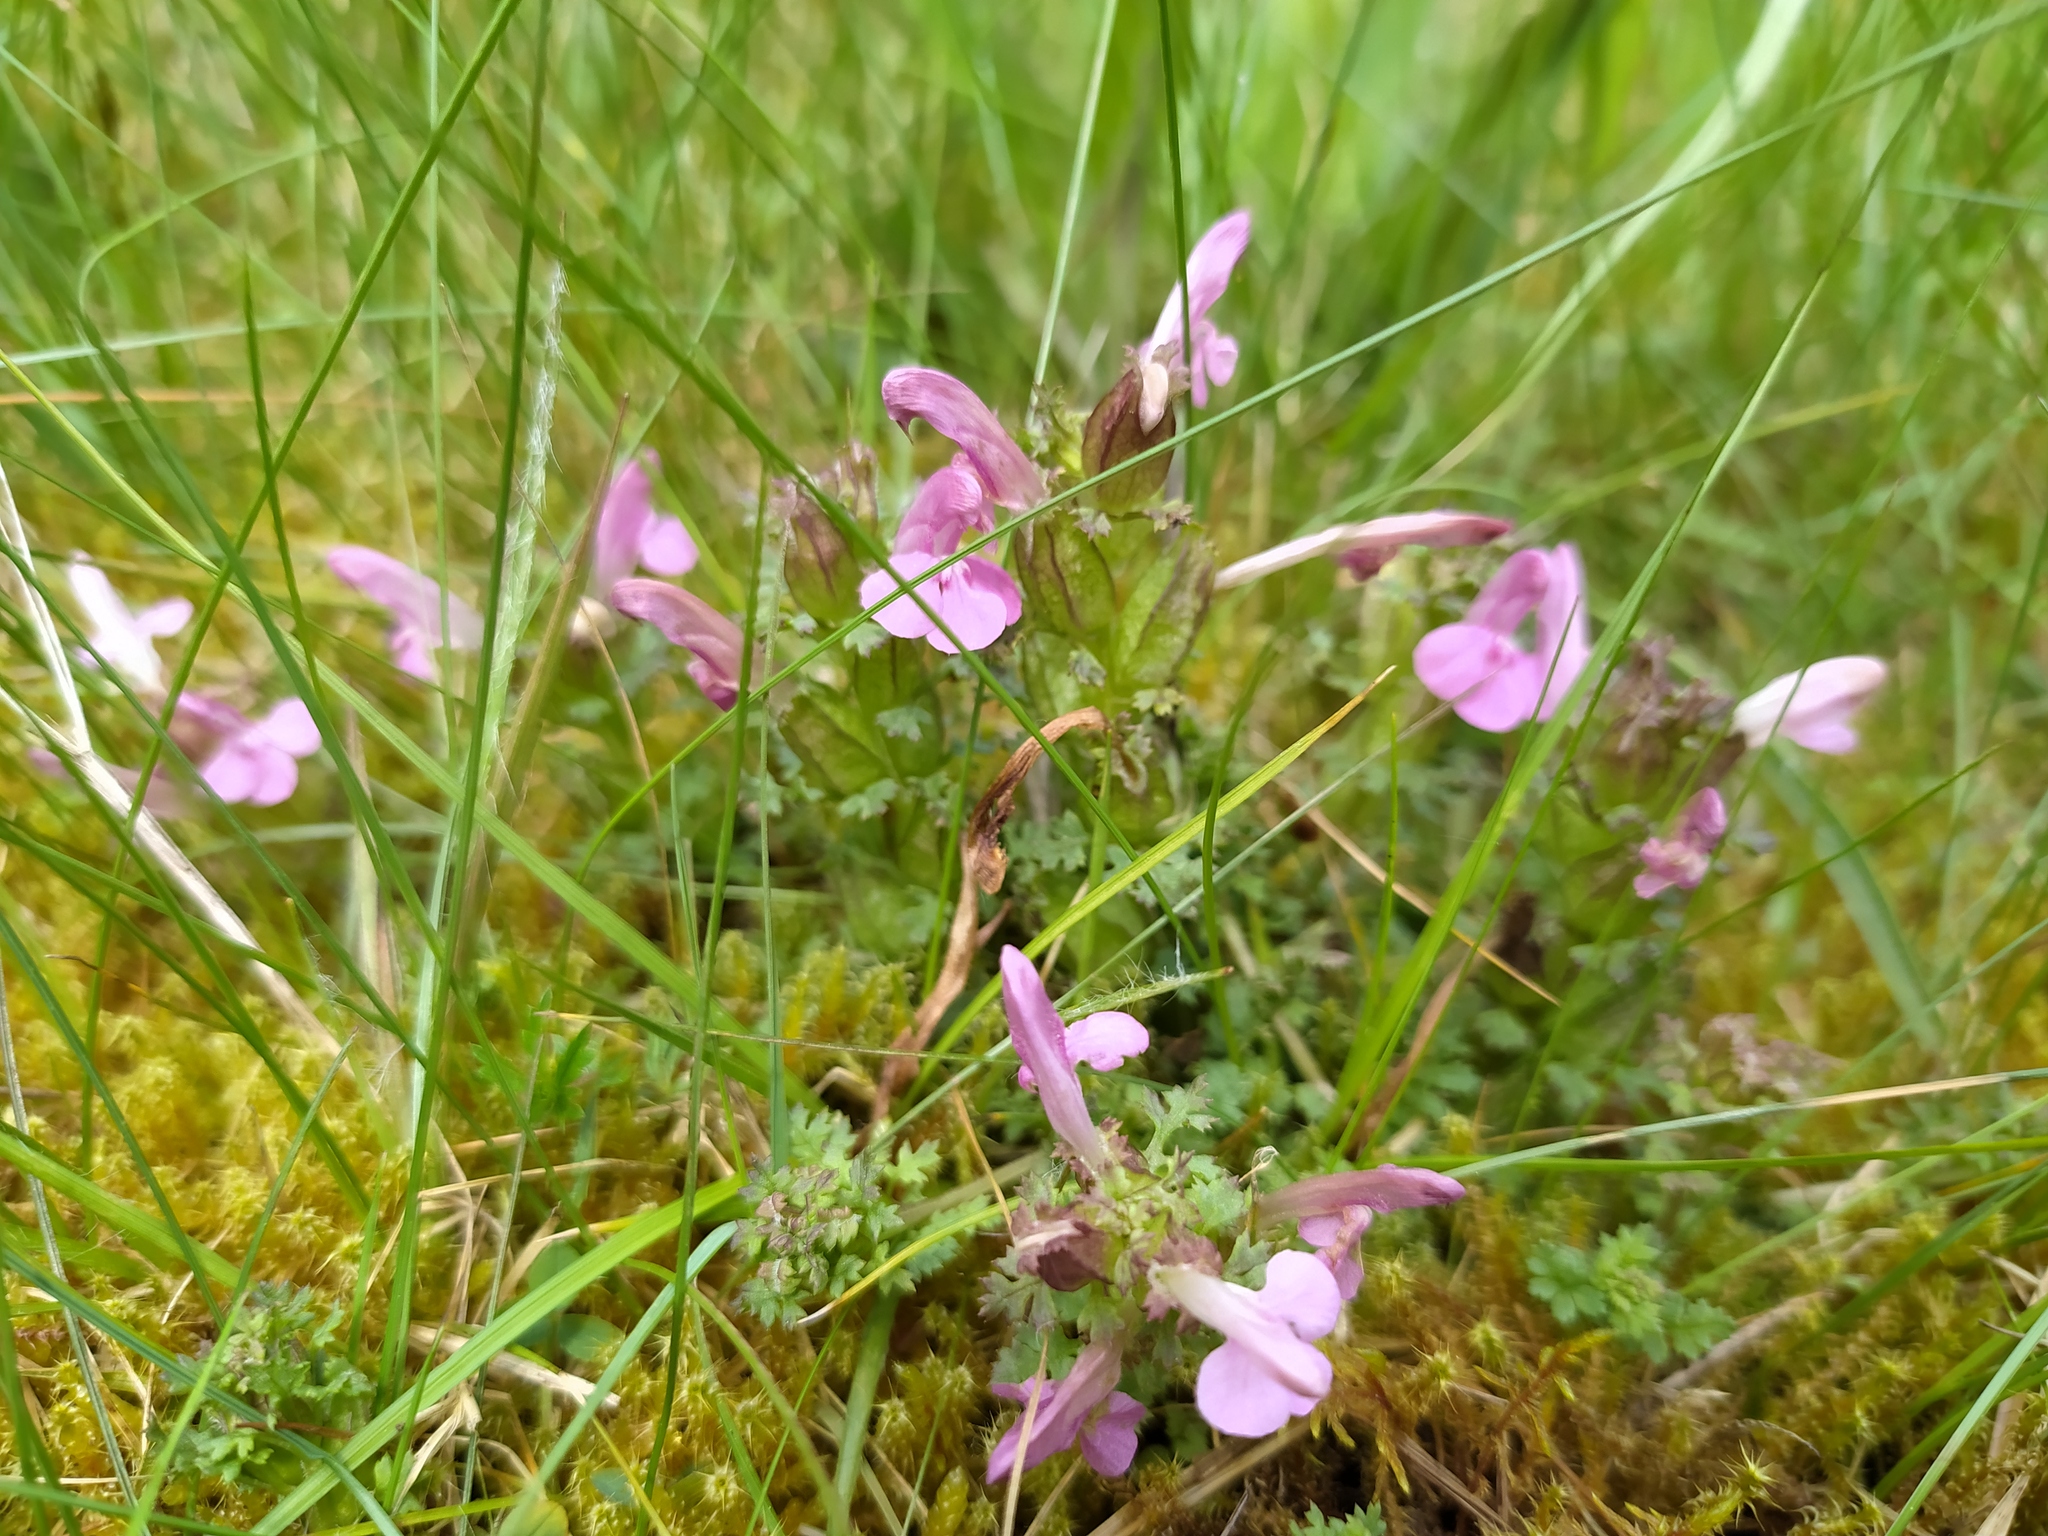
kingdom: Plantae
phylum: Tracheophyta
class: Magnoliopsida
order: Lamiales
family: Orobanchaceae
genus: Pedicularis
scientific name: Pedicularis sylvatica
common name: Lousewort
